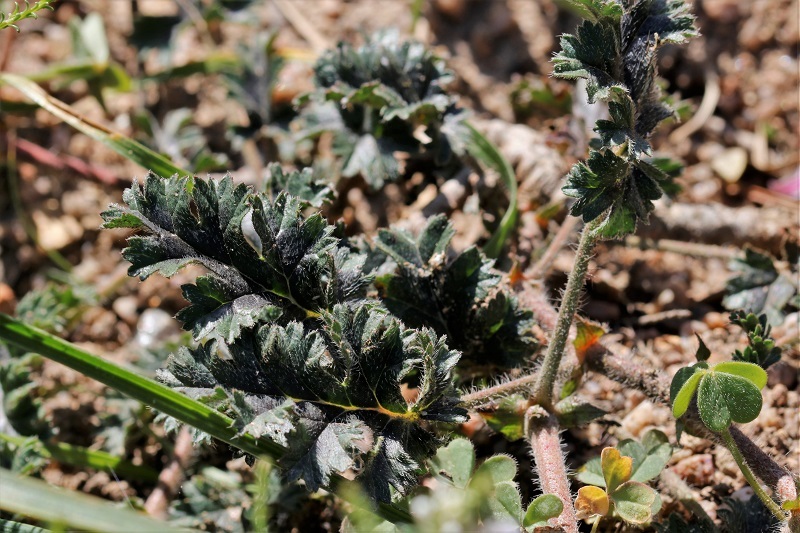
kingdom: Plantae
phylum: Tracheophyta
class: Magnoliopsida
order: Geraniales
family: Geraniaceae
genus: Pelargonium
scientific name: Pelargonium myrrhifolium
